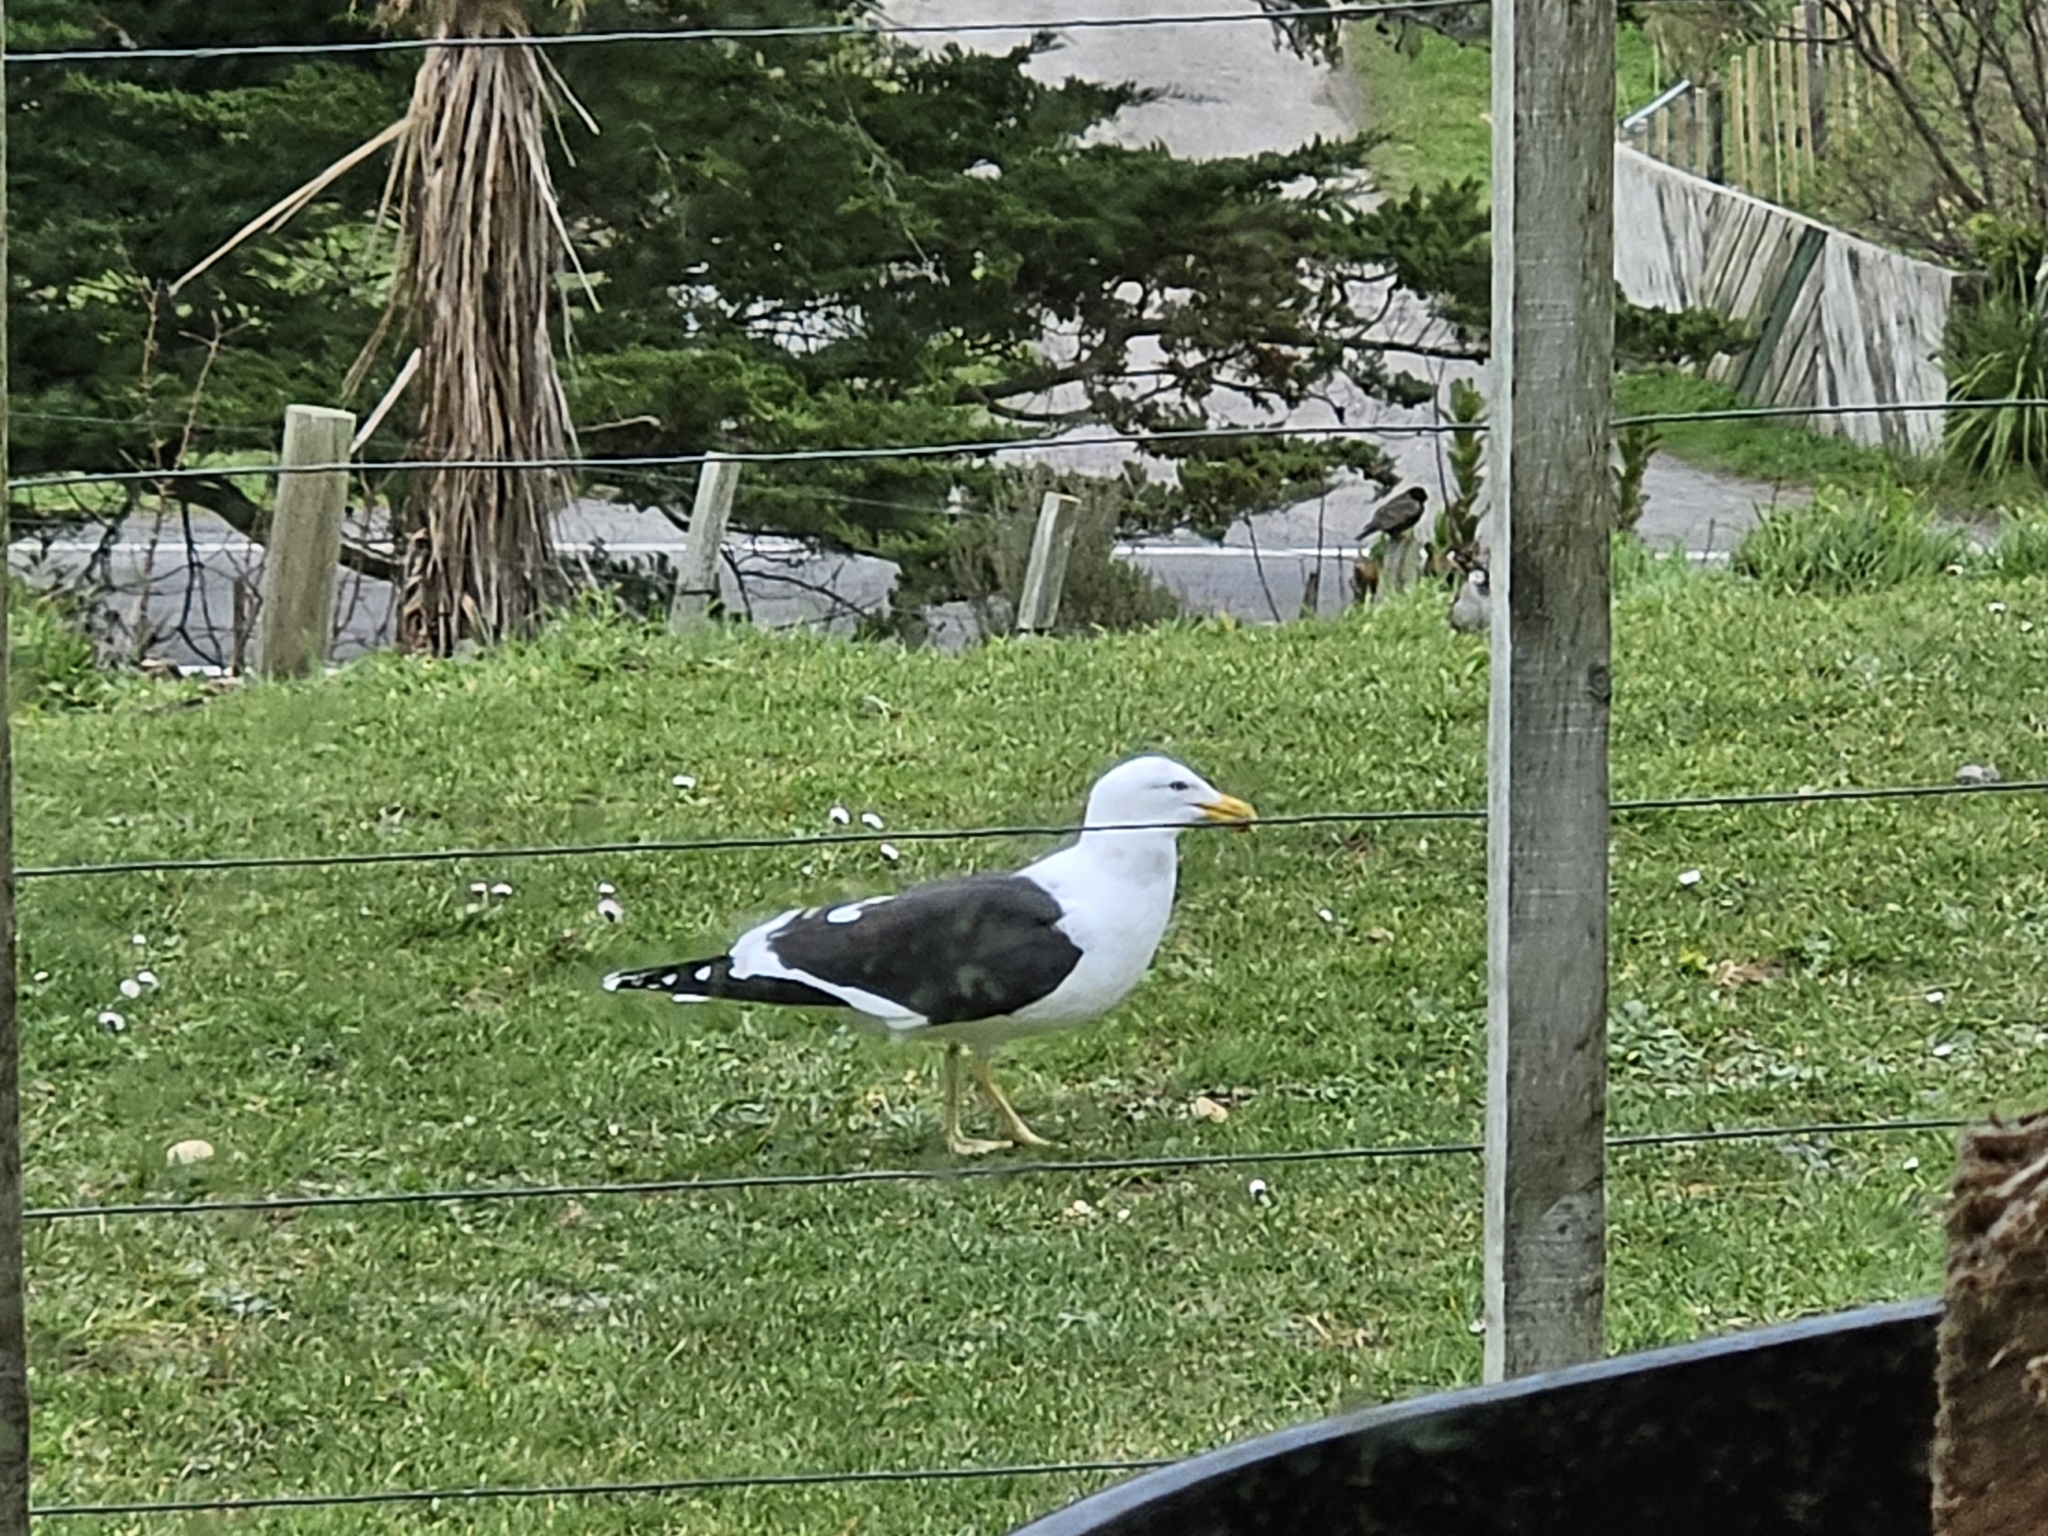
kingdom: Animalia
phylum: Chordata
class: Aves
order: Charadriiformes
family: Laridae
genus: Larus
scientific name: Larus dominicanus
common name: Kelp gull
